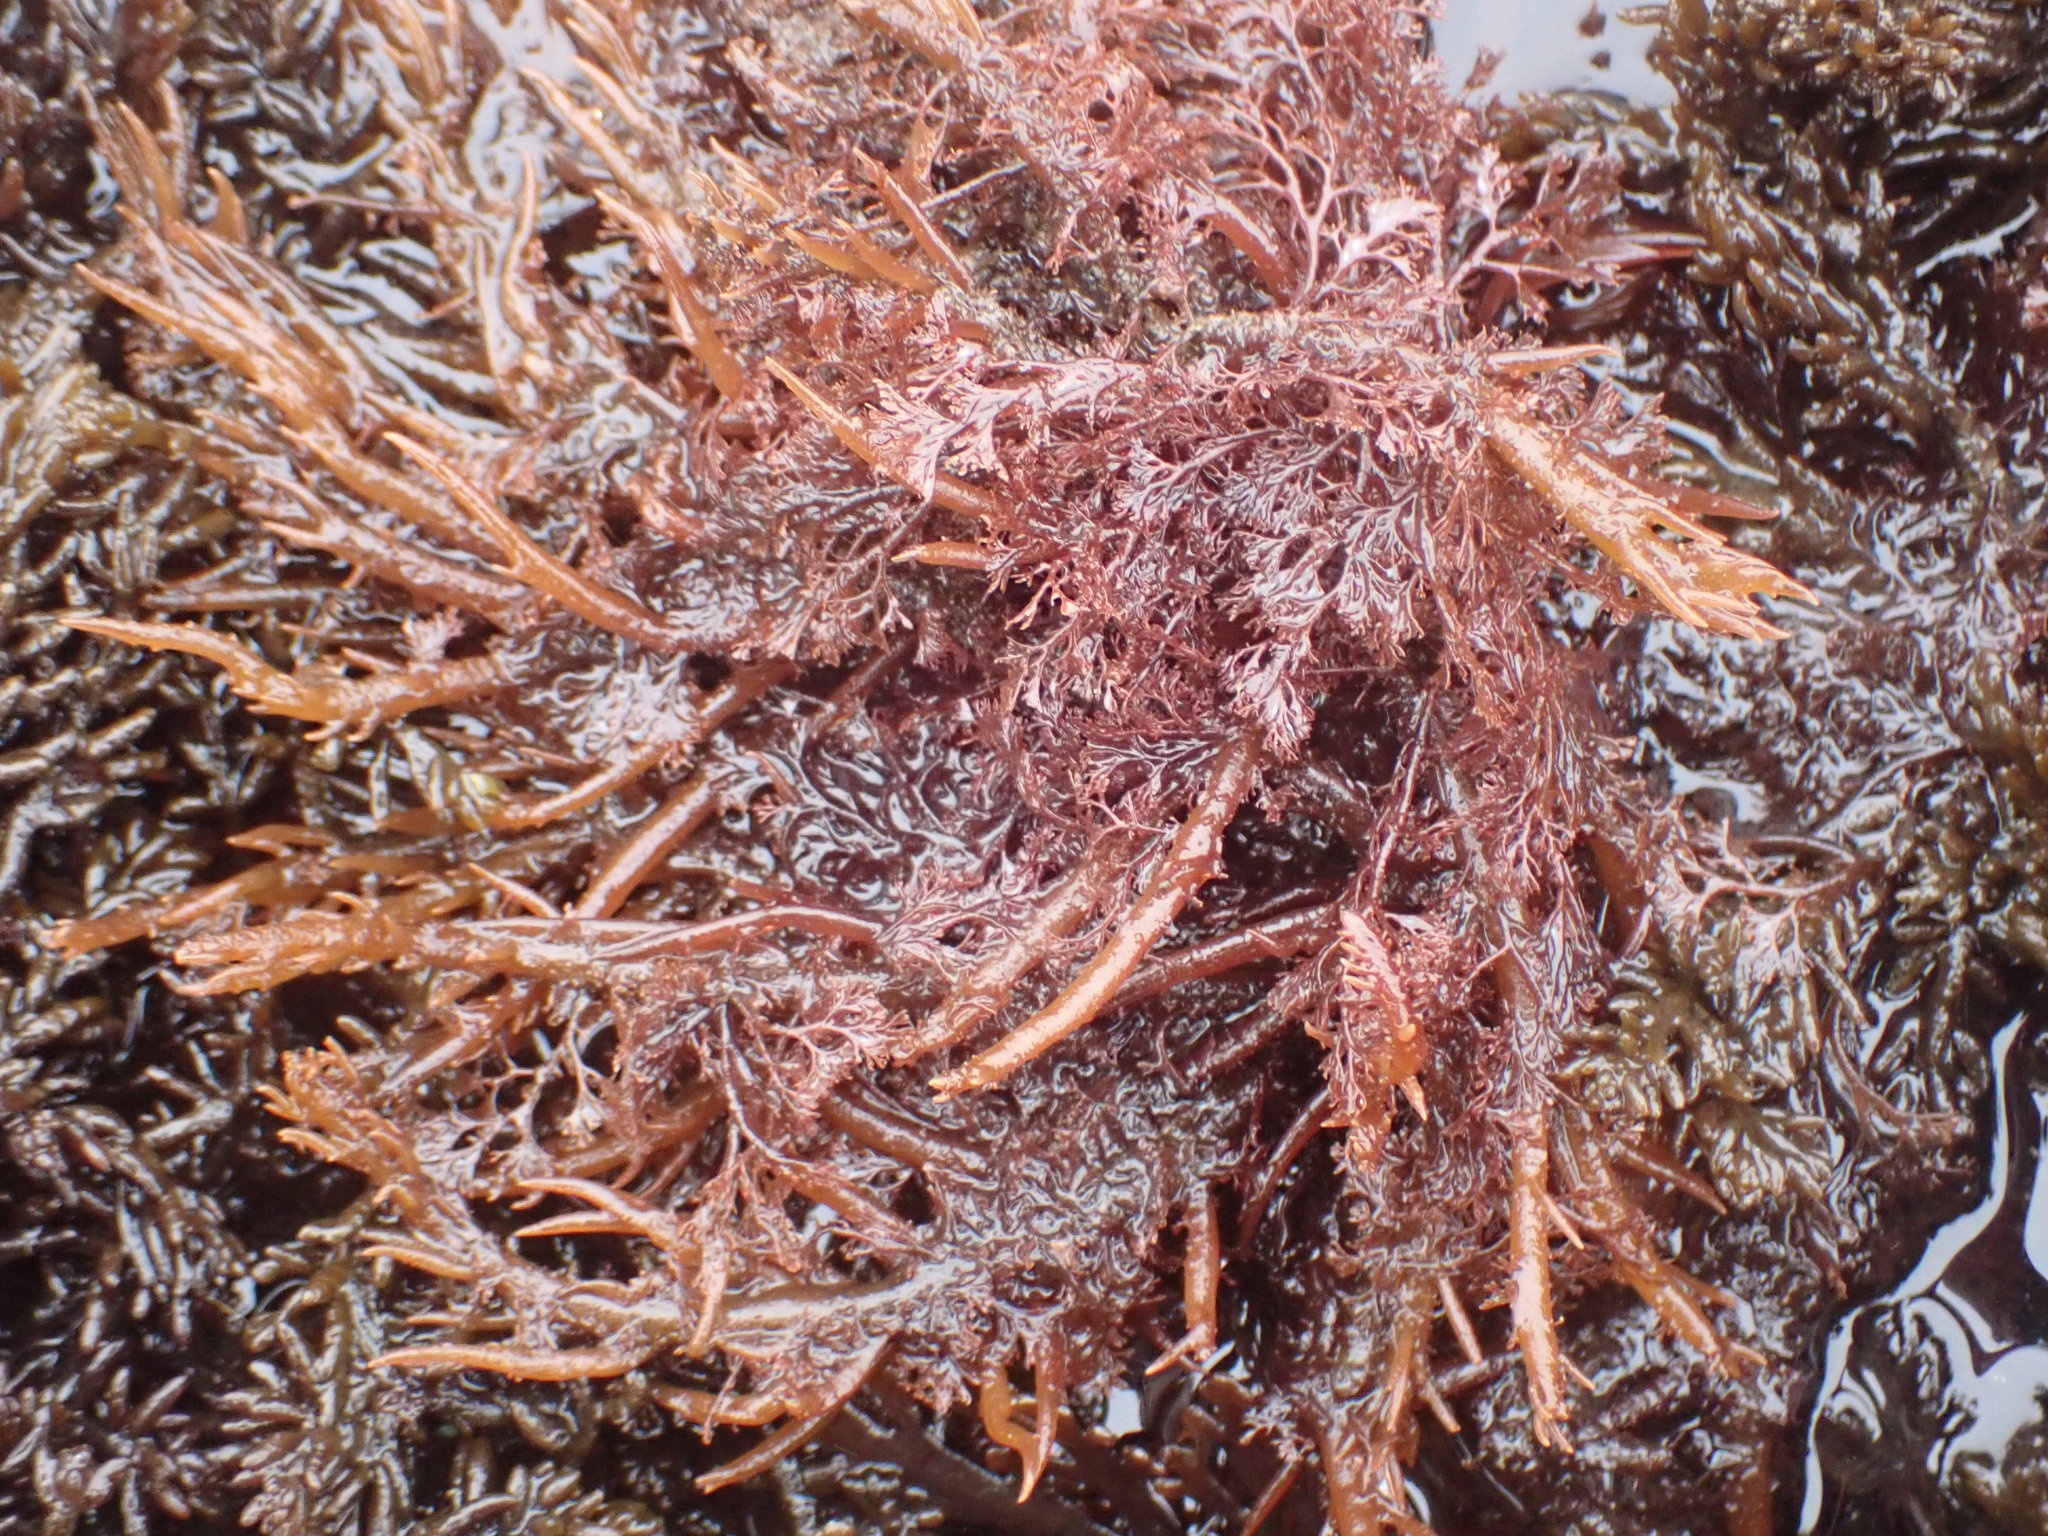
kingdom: Plantae
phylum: Rhodophyta
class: Florideophyceae
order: Gigartinales
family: Solieriaceae
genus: Sarcodiotheca
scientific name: Sarcodiotheca gaudichaudii
